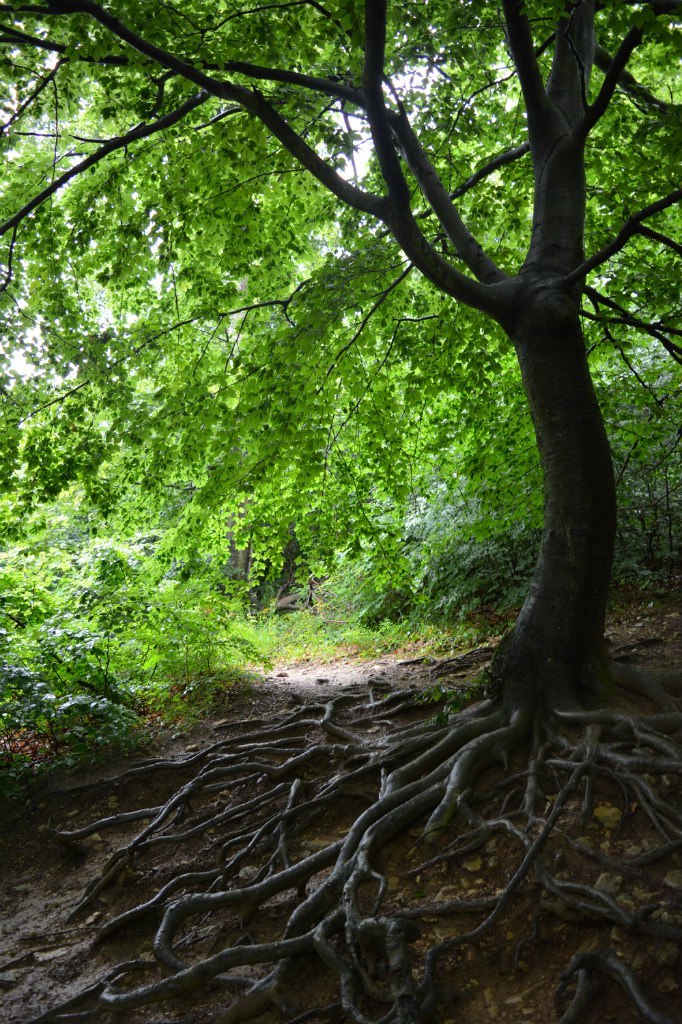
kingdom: Plantae
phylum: Tracheophyta
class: Magnoliopsida
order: Fagales
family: Fagaceae
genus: Fagus
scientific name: Fagus sylvatica
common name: Beech
